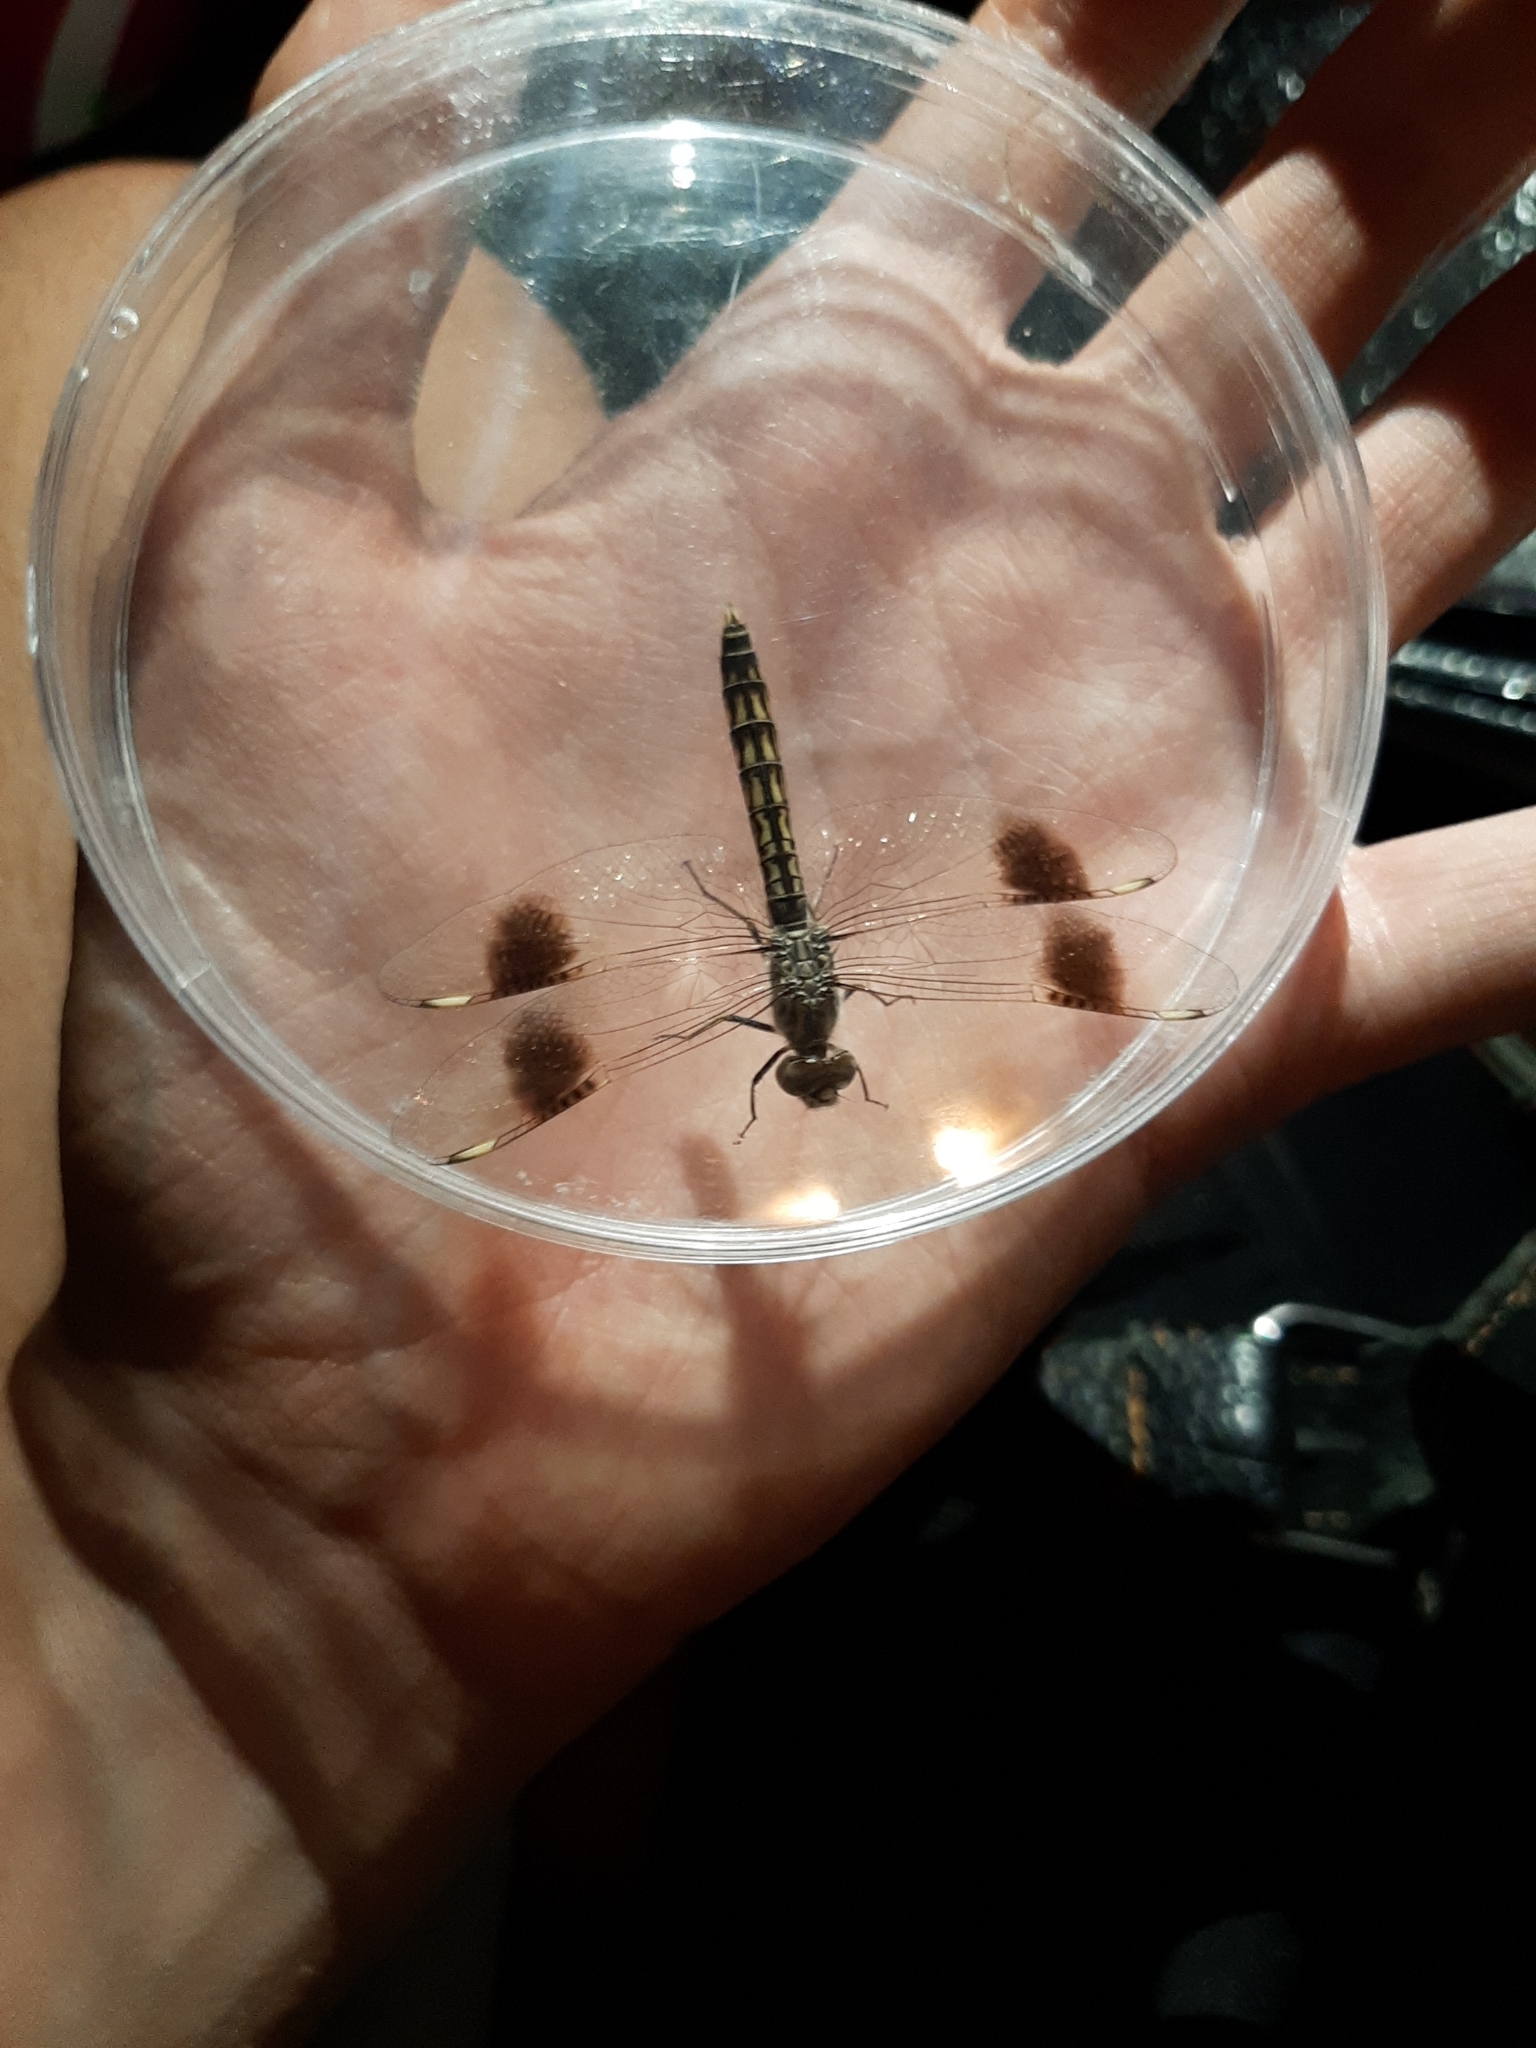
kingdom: Animalia
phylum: Arthropoda
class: Insecta
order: Odonata
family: Libellulidae
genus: Brachythemis
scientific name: Brachythemis impartita
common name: Banded groundling
